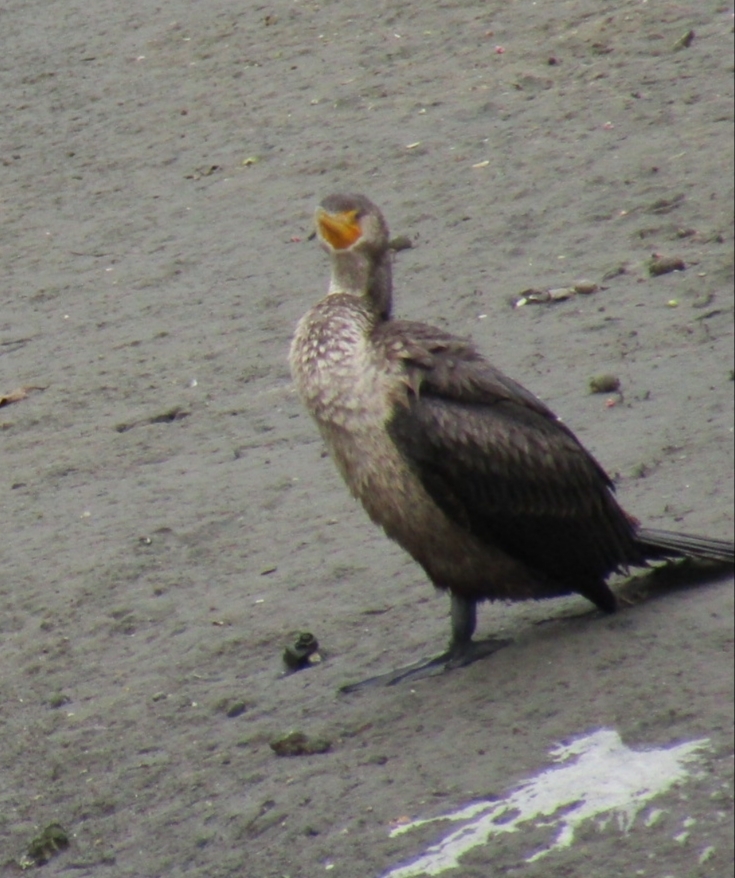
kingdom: Animalia
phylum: Chordata
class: Aves
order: Suliformes
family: Phalacrocoracidae
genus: Phalacrocorax
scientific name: Phalacrocorax auritus
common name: Double-crested cormorant
